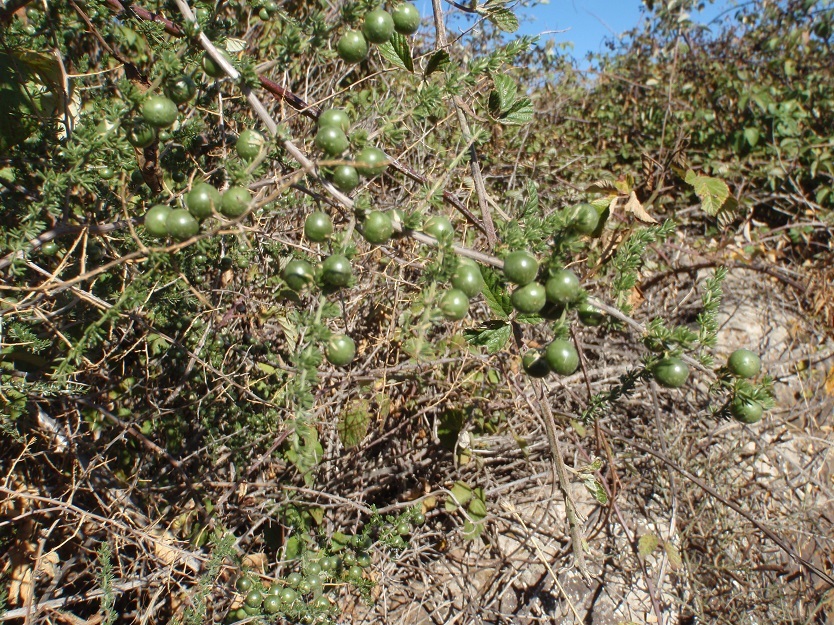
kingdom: Plantae
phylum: Tracheophyta
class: Liliopsida
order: Asparagales
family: Asparagaceae
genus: Asparagus
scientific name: Asparagus acutifolius
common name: Wild asparagus
